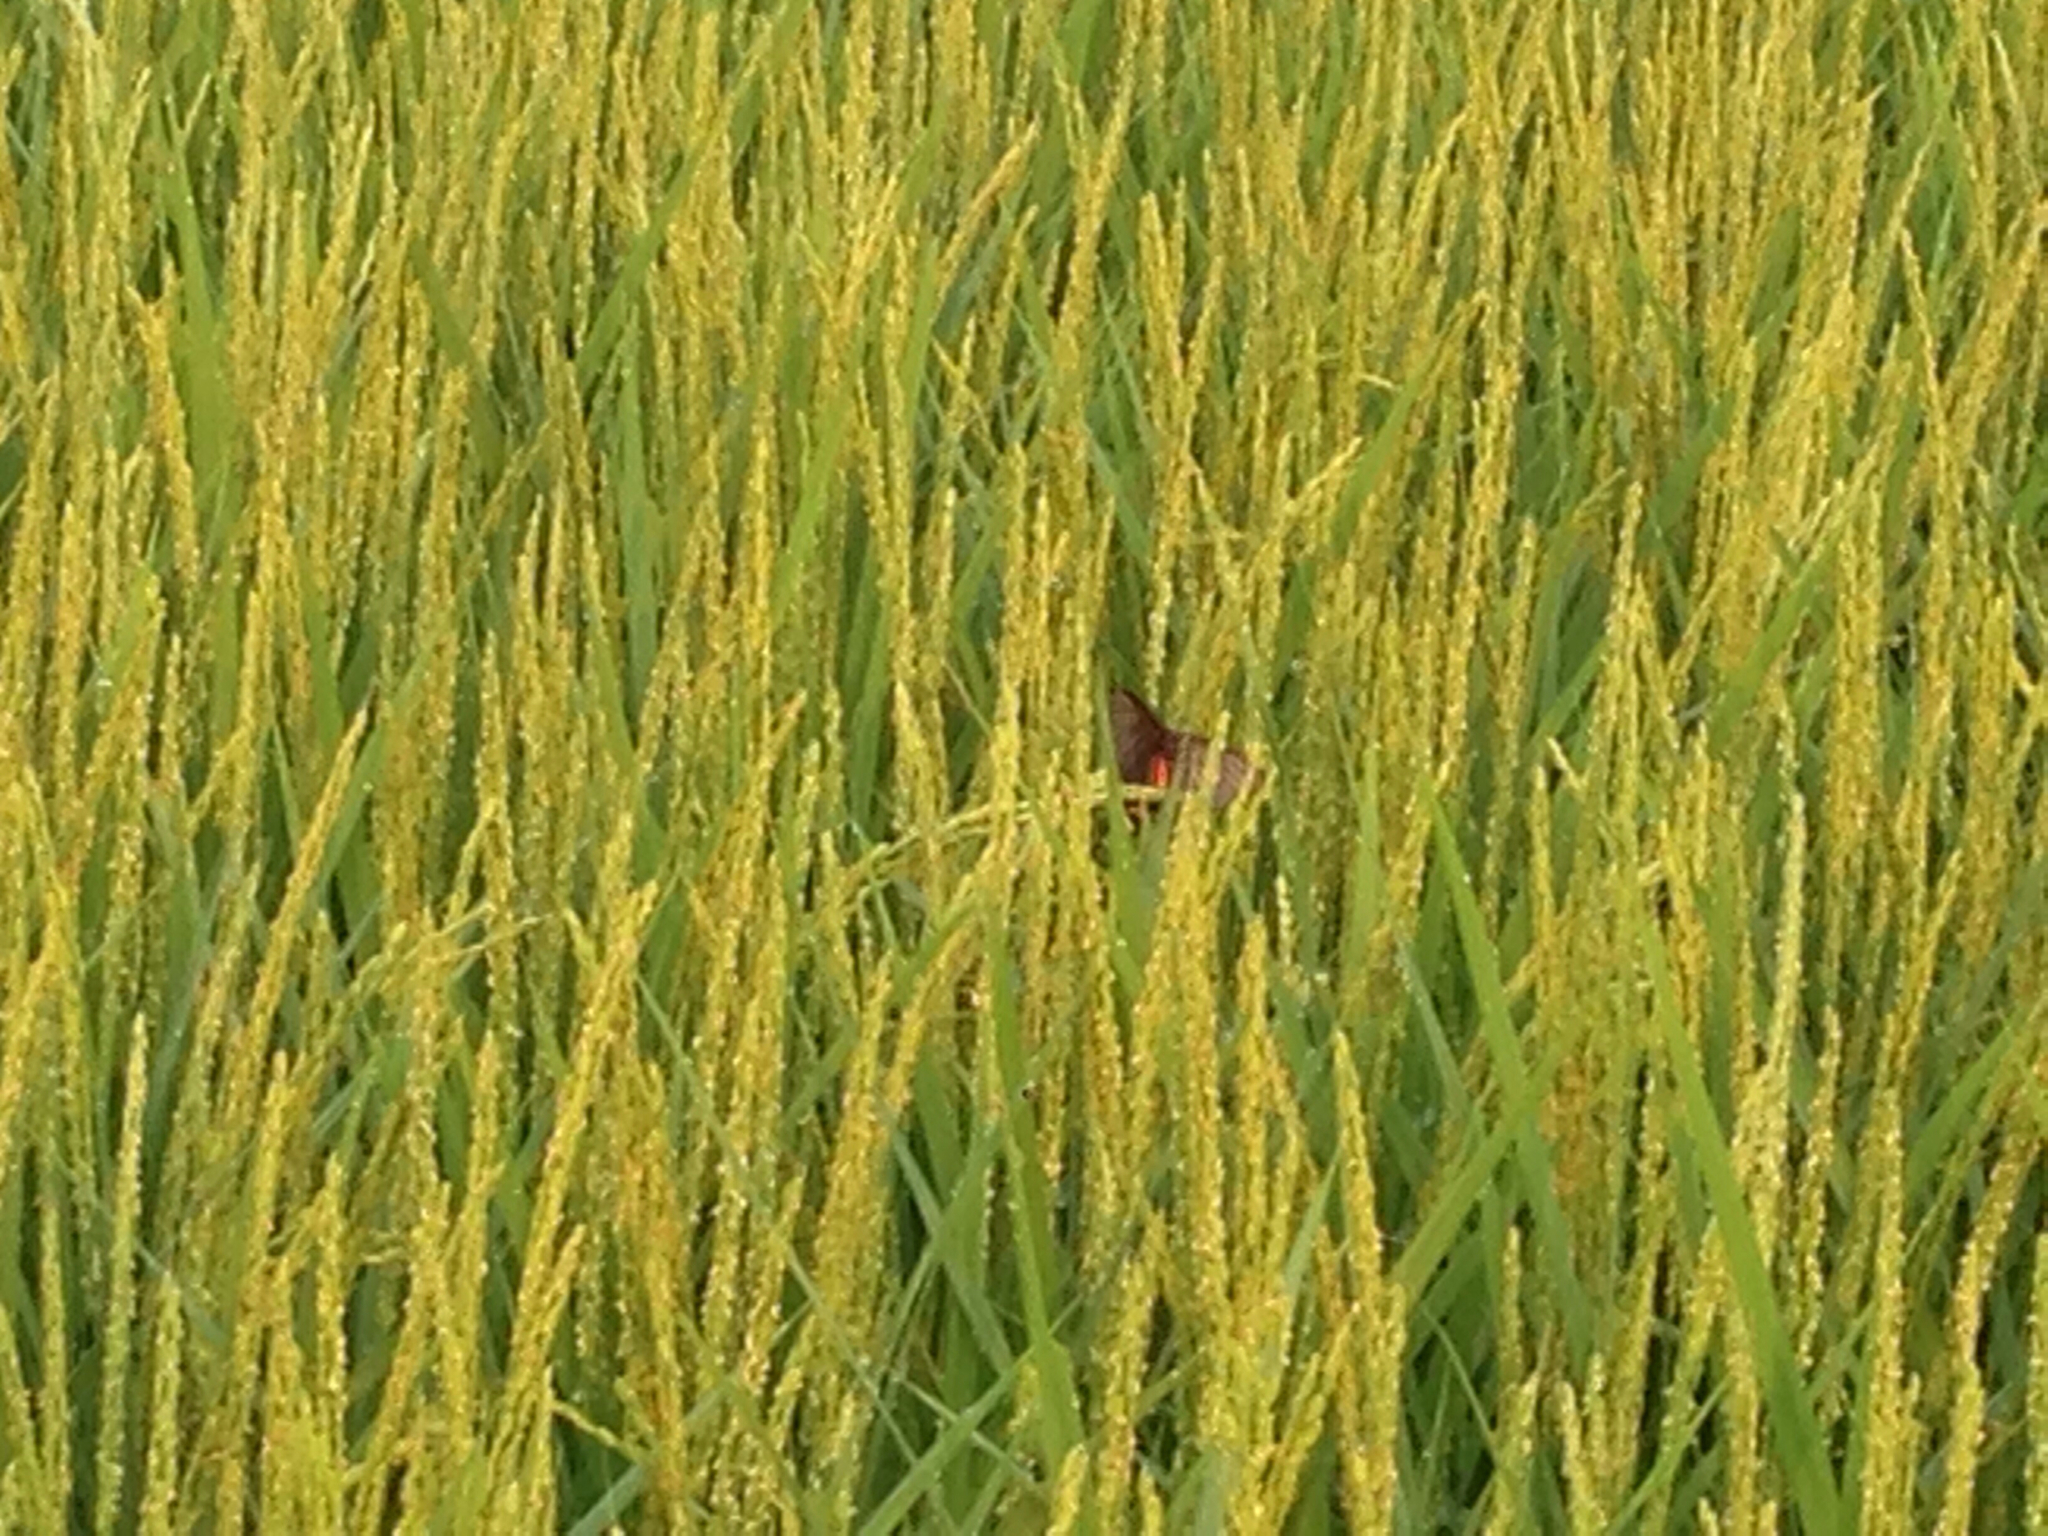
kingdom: Animalia
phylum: Arthropoda
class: Insecta
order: Lepidoptera
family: Papilionidae
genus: Byasa
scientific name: Byasa alcinous
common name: Chinese windmill
